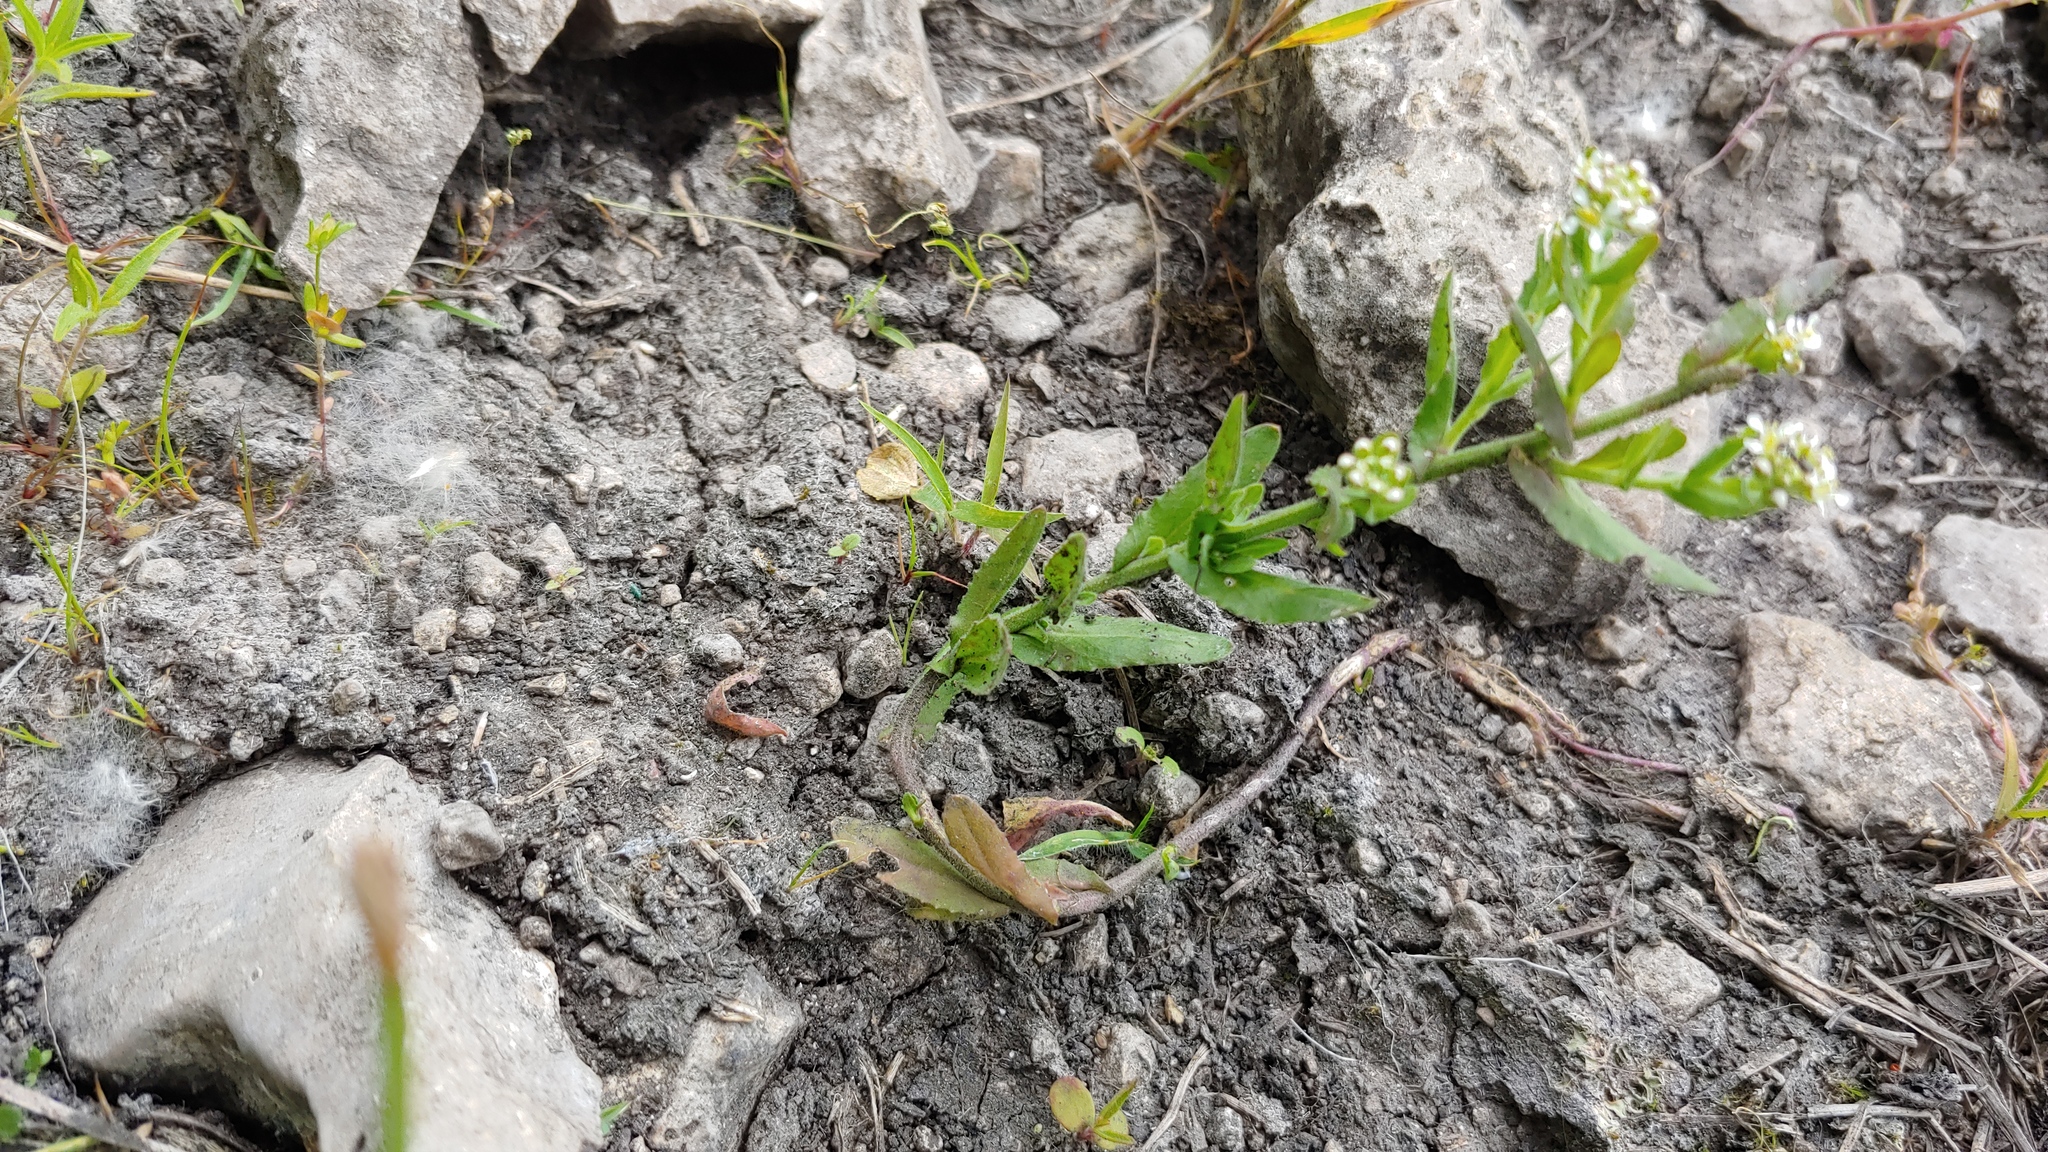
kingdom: Plantae
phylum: Tracheophyta
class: Magnoliopsida
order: Brassicales
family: Brassicaceae
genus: Lepidium
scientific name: Lepidium campestre
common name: Field pepperwort
